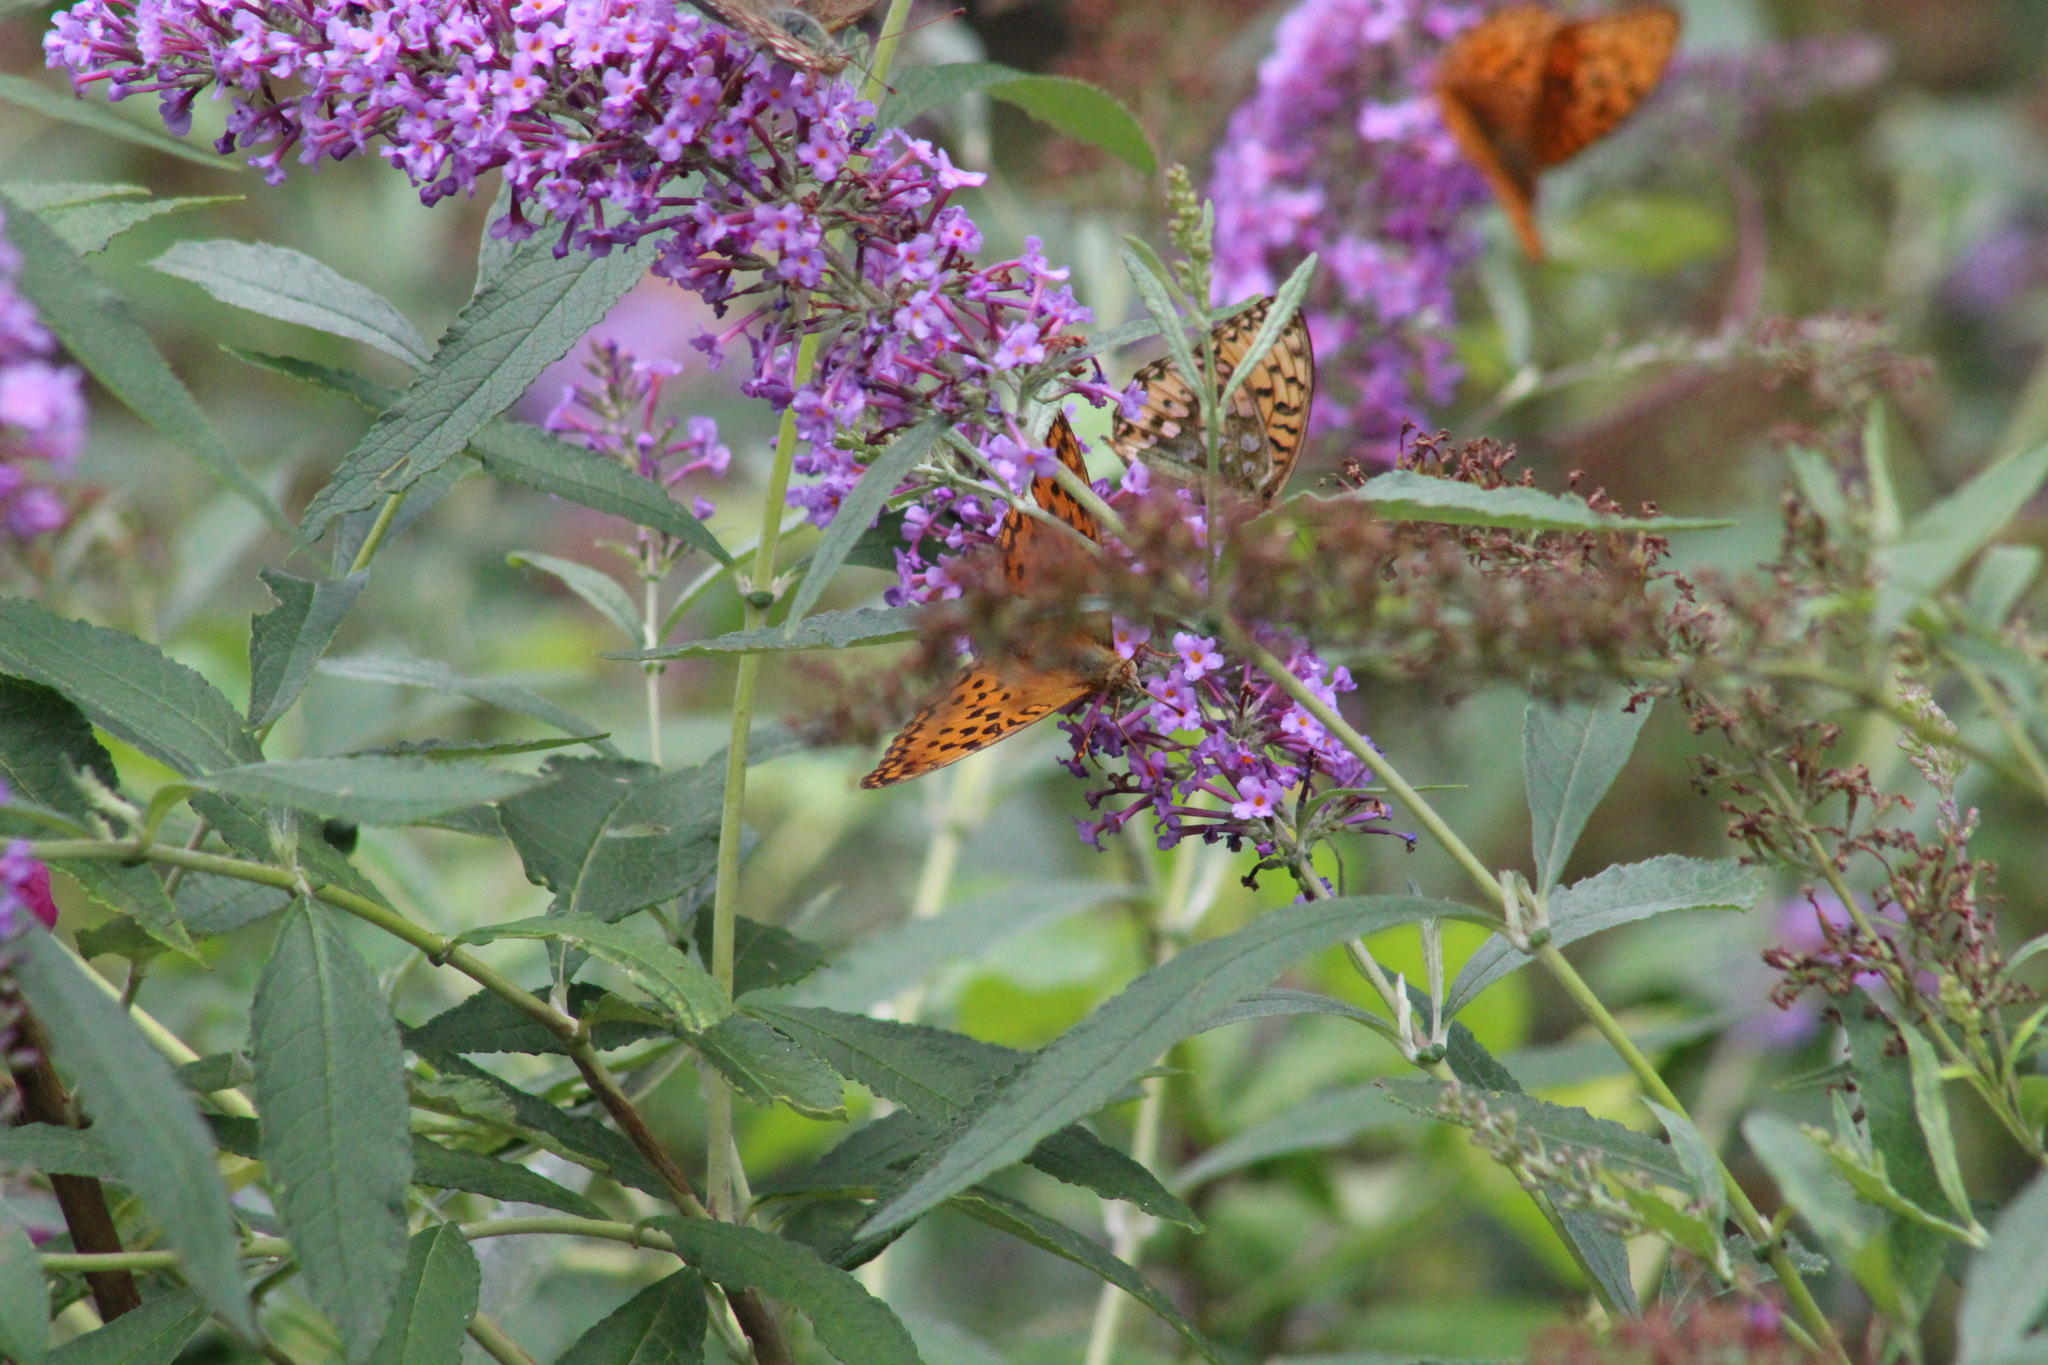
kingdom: Animalia
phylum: Arthropoda
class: Insecta
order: Lepidoptera
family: Nymphalidae
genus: Speyeria
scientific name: Speyeria aglaja
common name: Dark green fritillary
